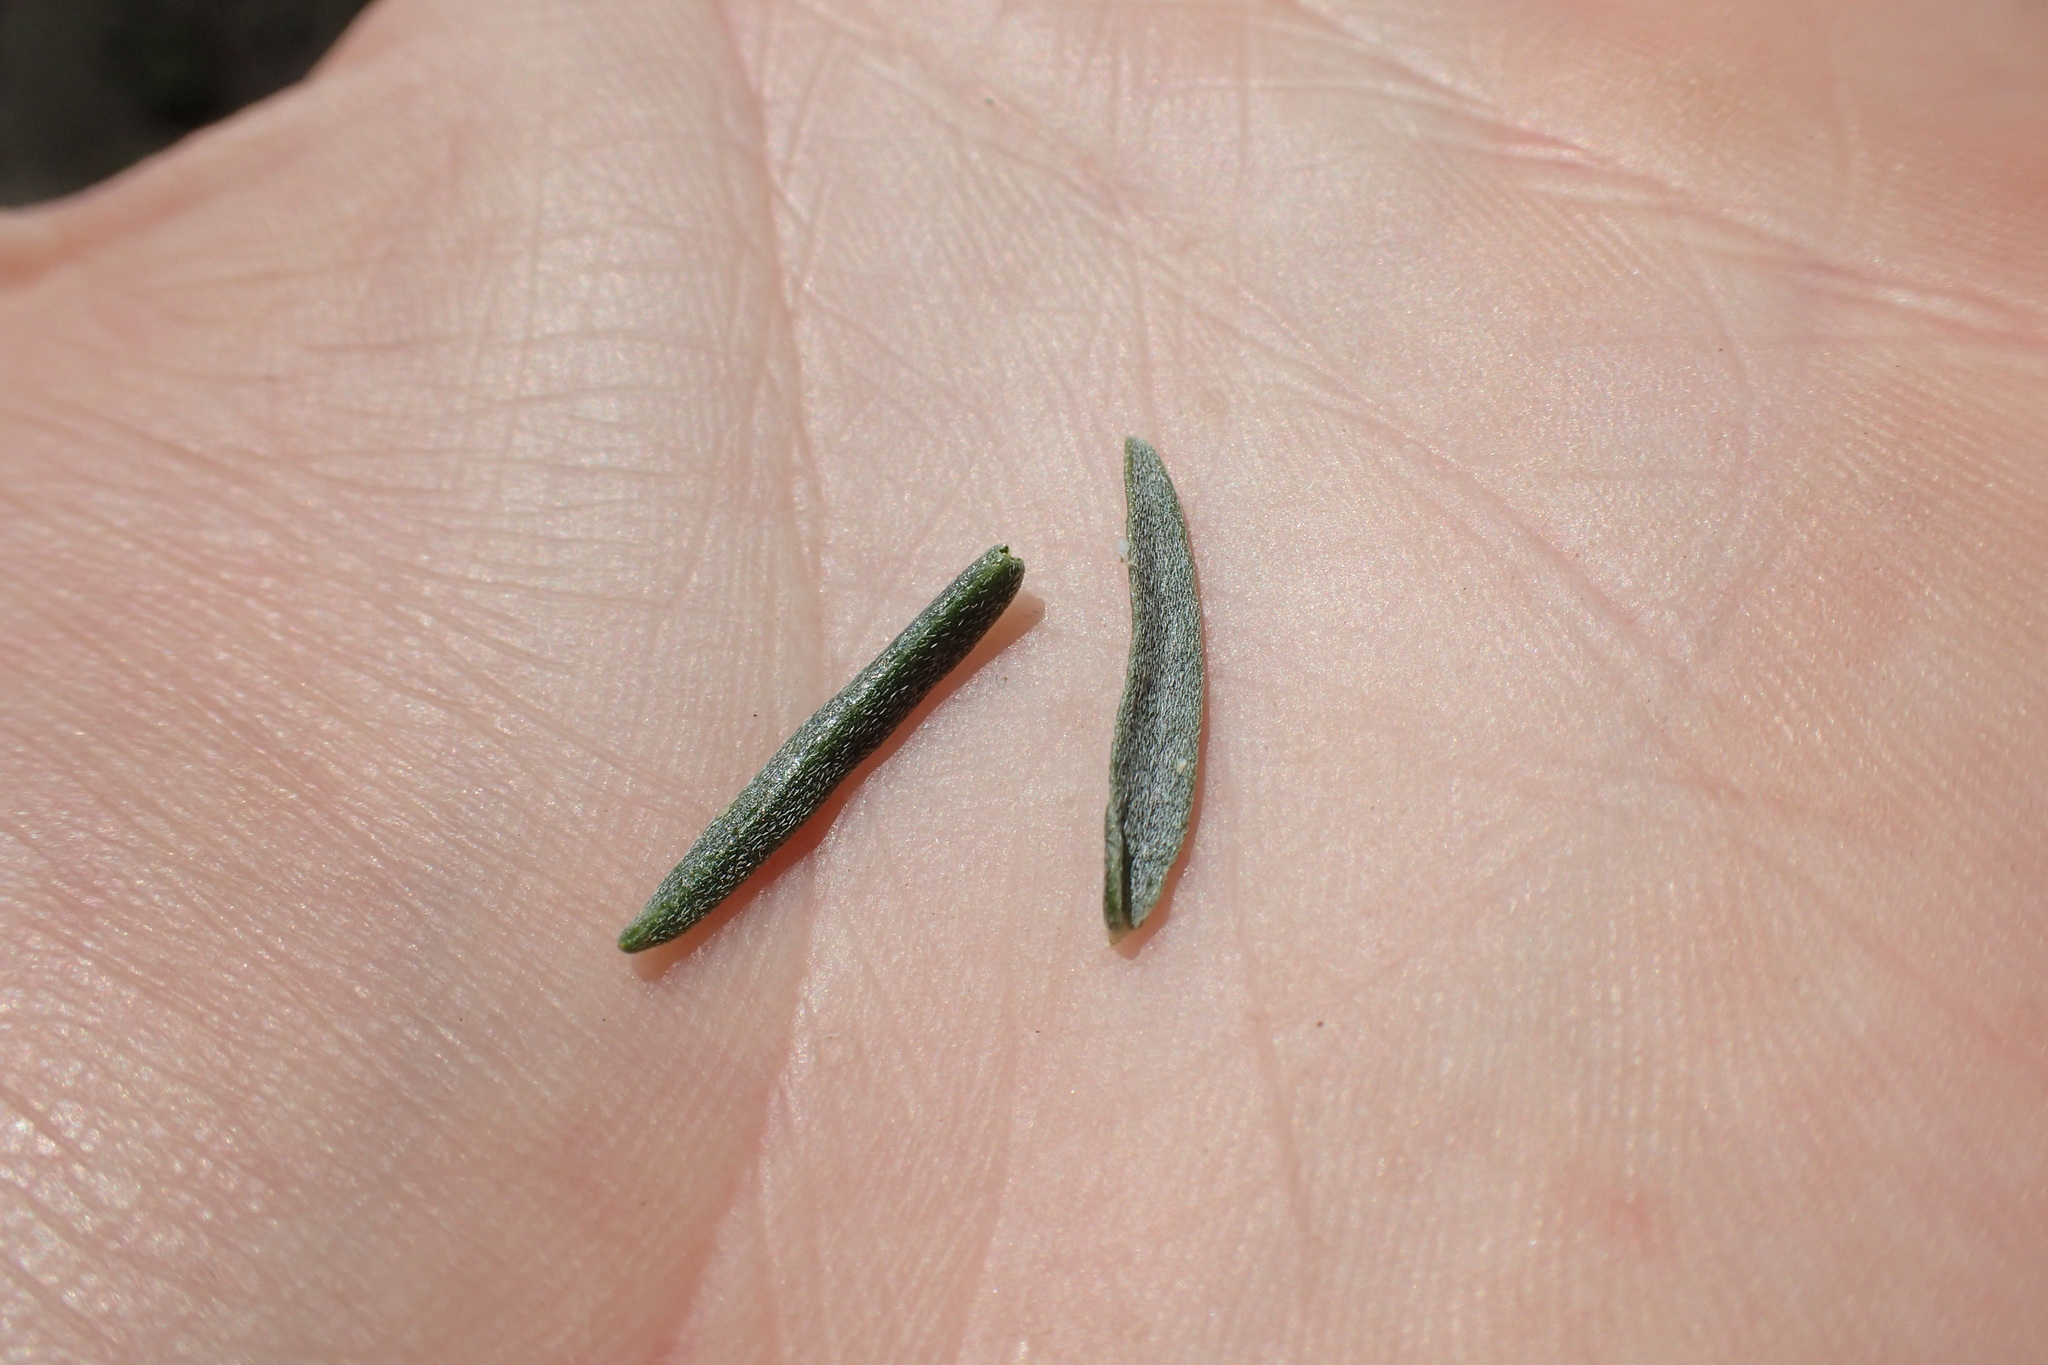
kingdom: Plantae
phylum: Tracheophyta
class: Magnoliopsida
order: Fabales
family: Fabaceae
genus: Astragalus
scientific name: Astragalus serenoi
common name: Naked milk-vetch
